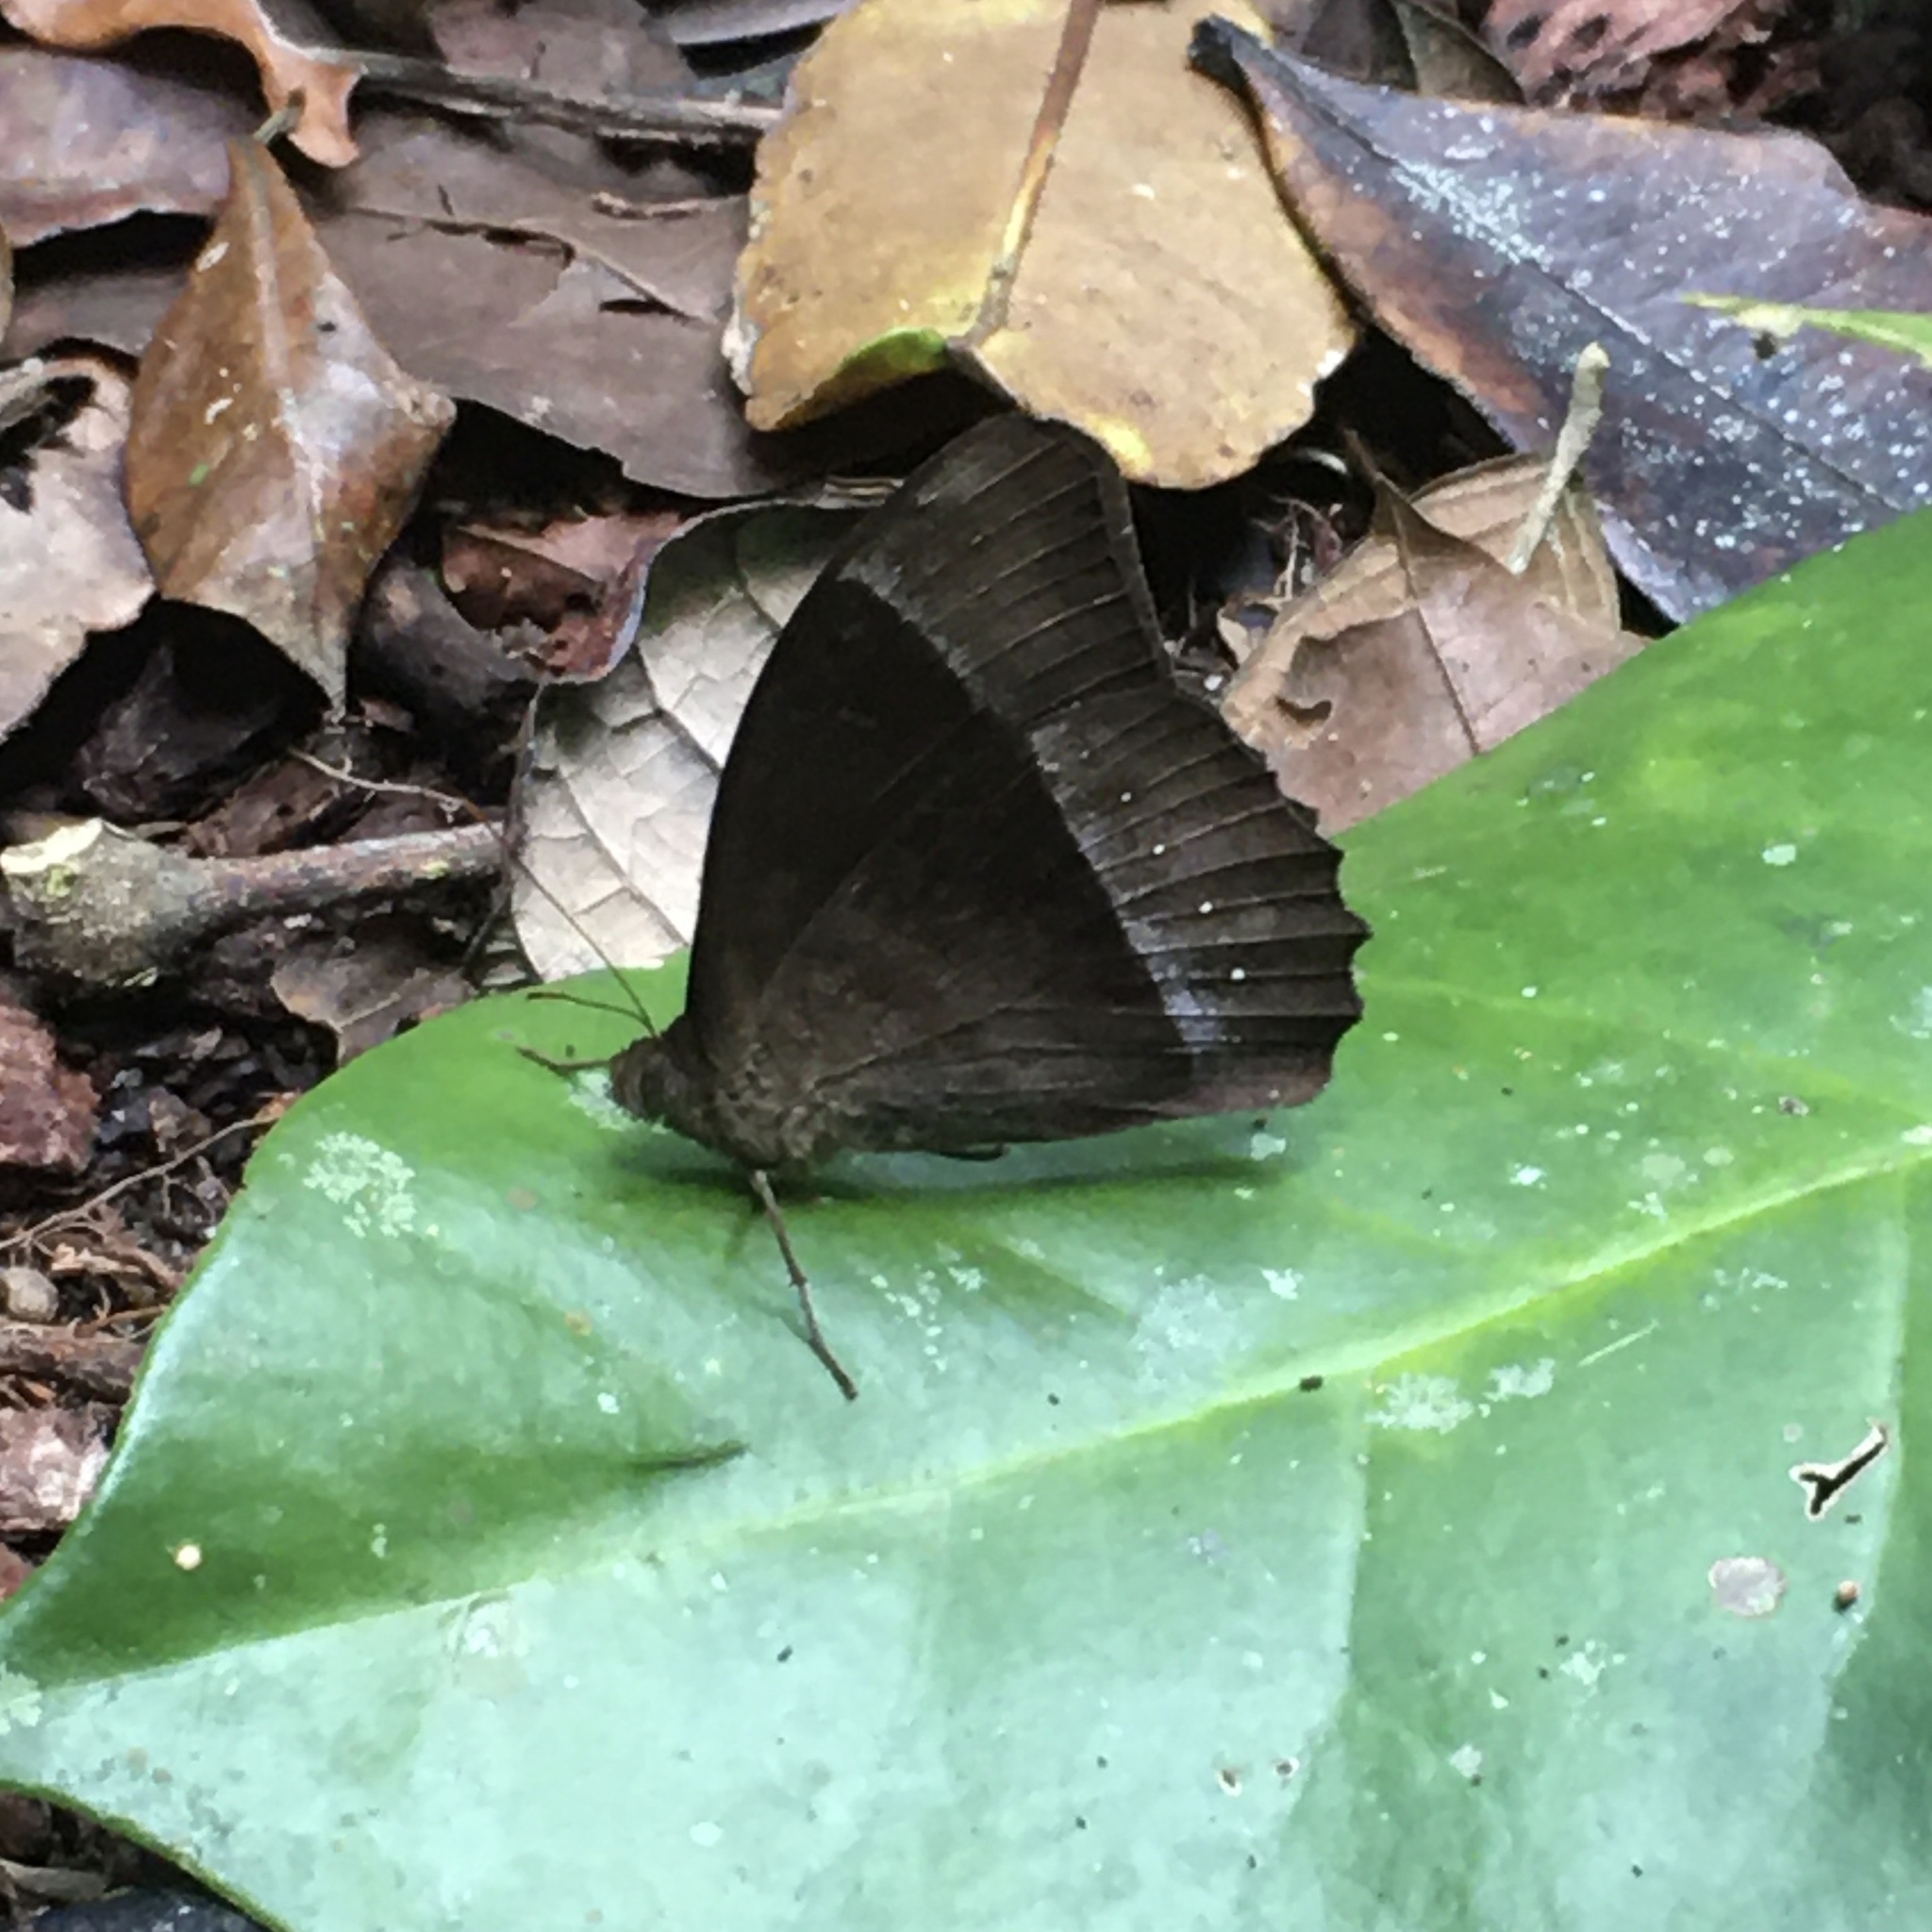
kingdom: Animalia
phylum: Arthropoda
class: Insecta
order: Lepidoptera
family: Nymphalidae
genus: Taygetis
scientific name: Taygetis echo
